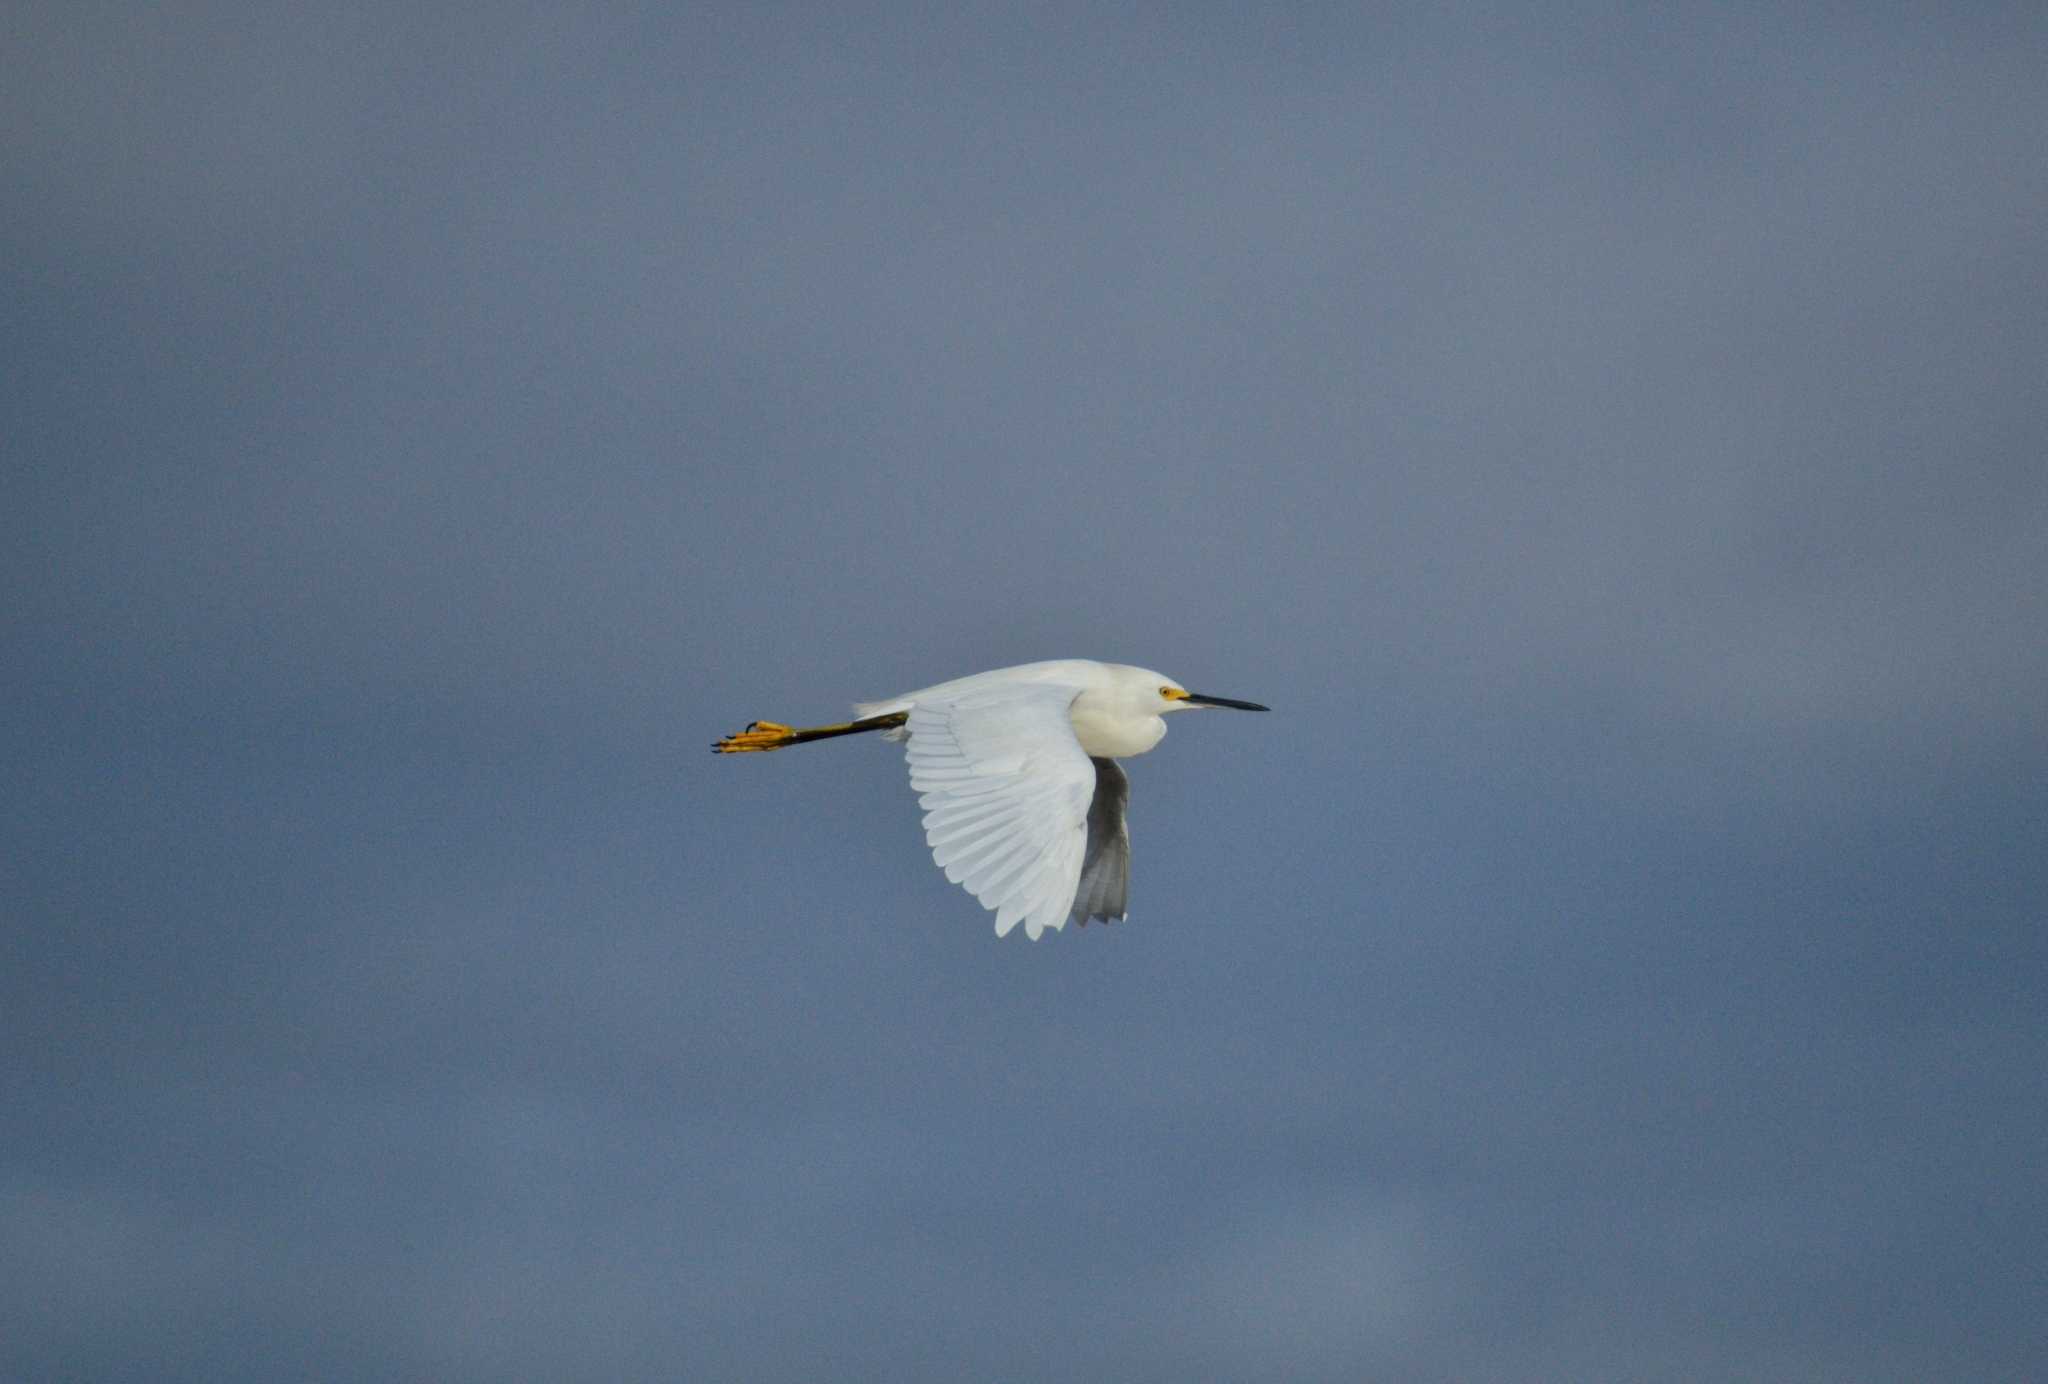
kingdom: Animalia
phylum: Chordata
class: Aves
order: Pelecaniformes
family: Ardeidae
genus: Egretta
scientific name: Egretta thula
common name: Snowy egret
